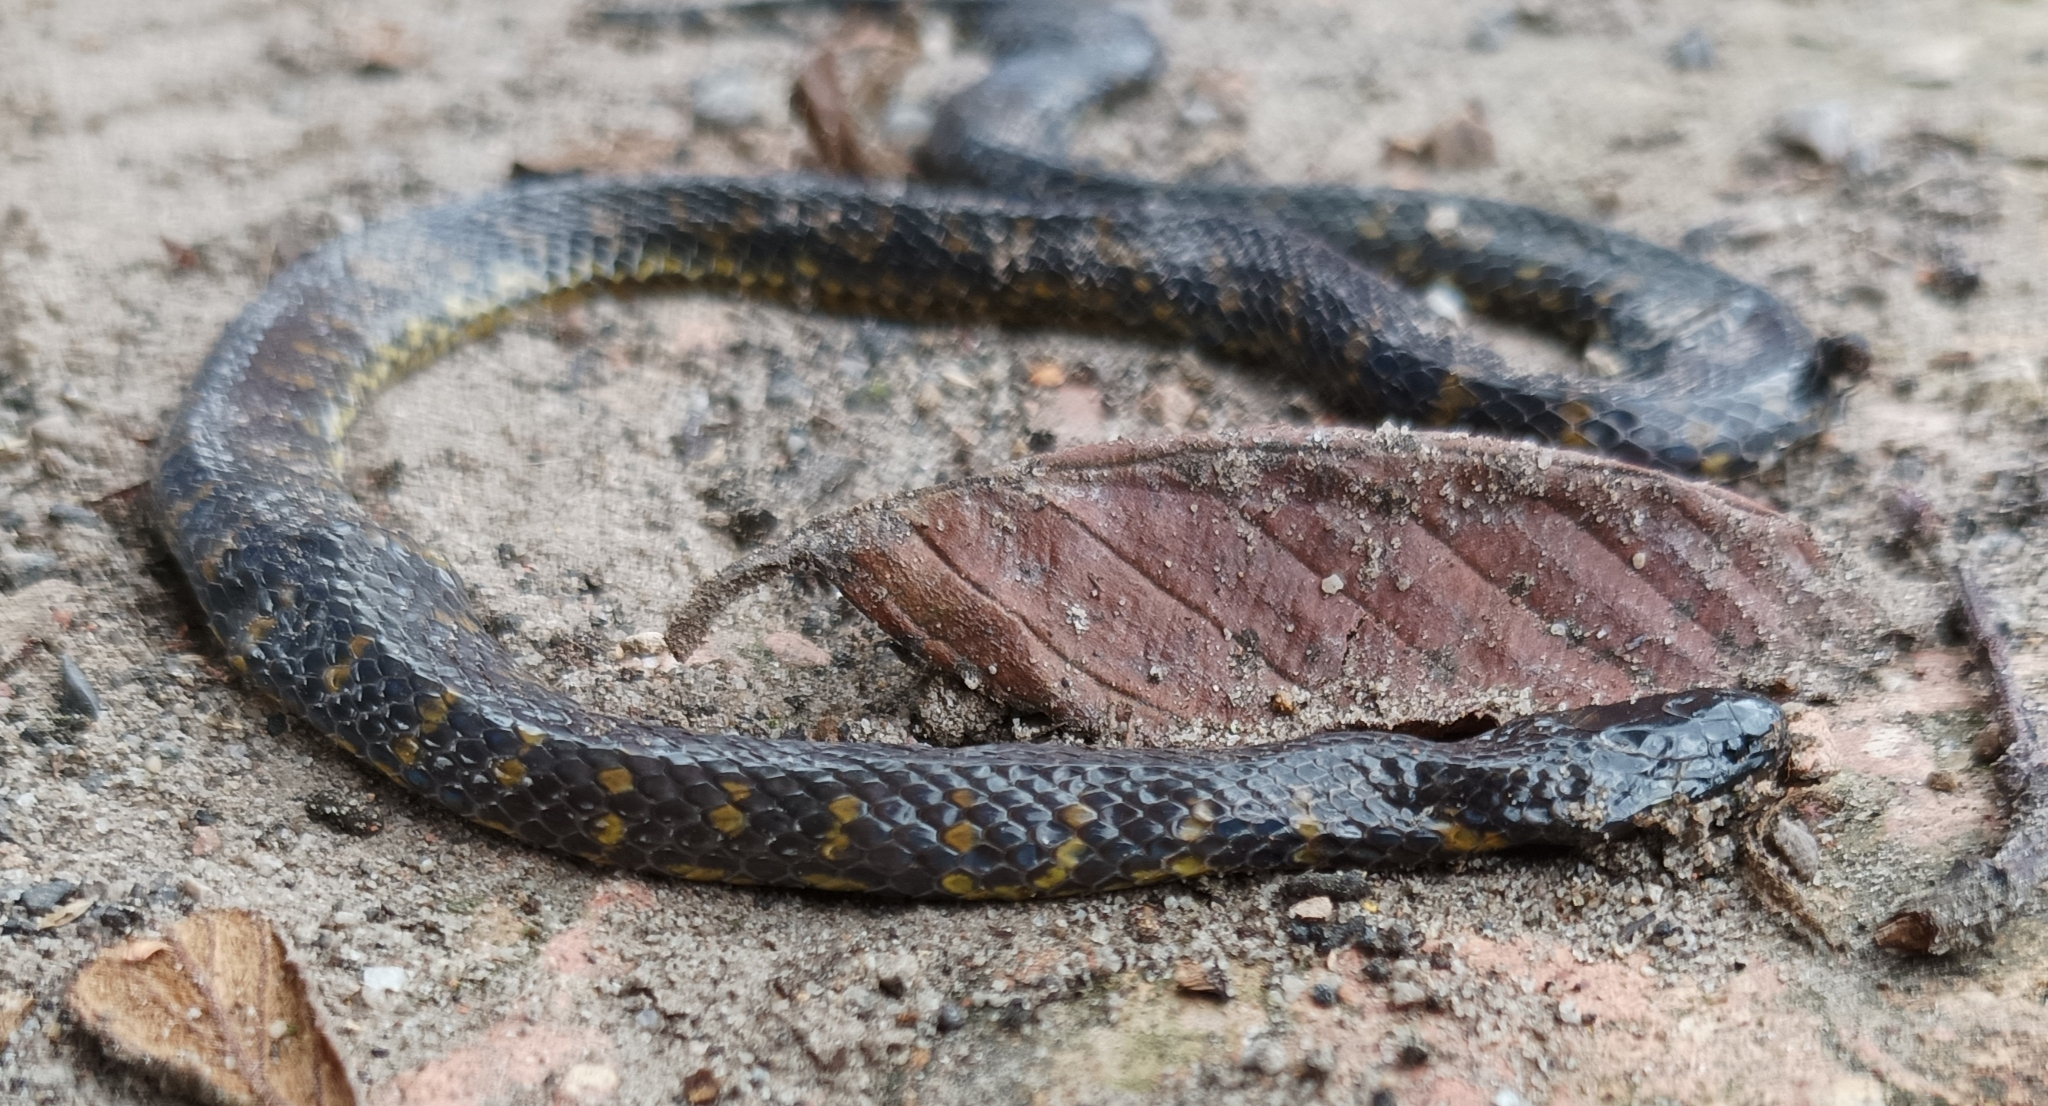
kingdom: Animalia
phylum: Chordata
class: Squamata
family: Colubridae
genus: Atractus
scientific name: Atractus crassicaudatus
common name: Thickhead ground snake
